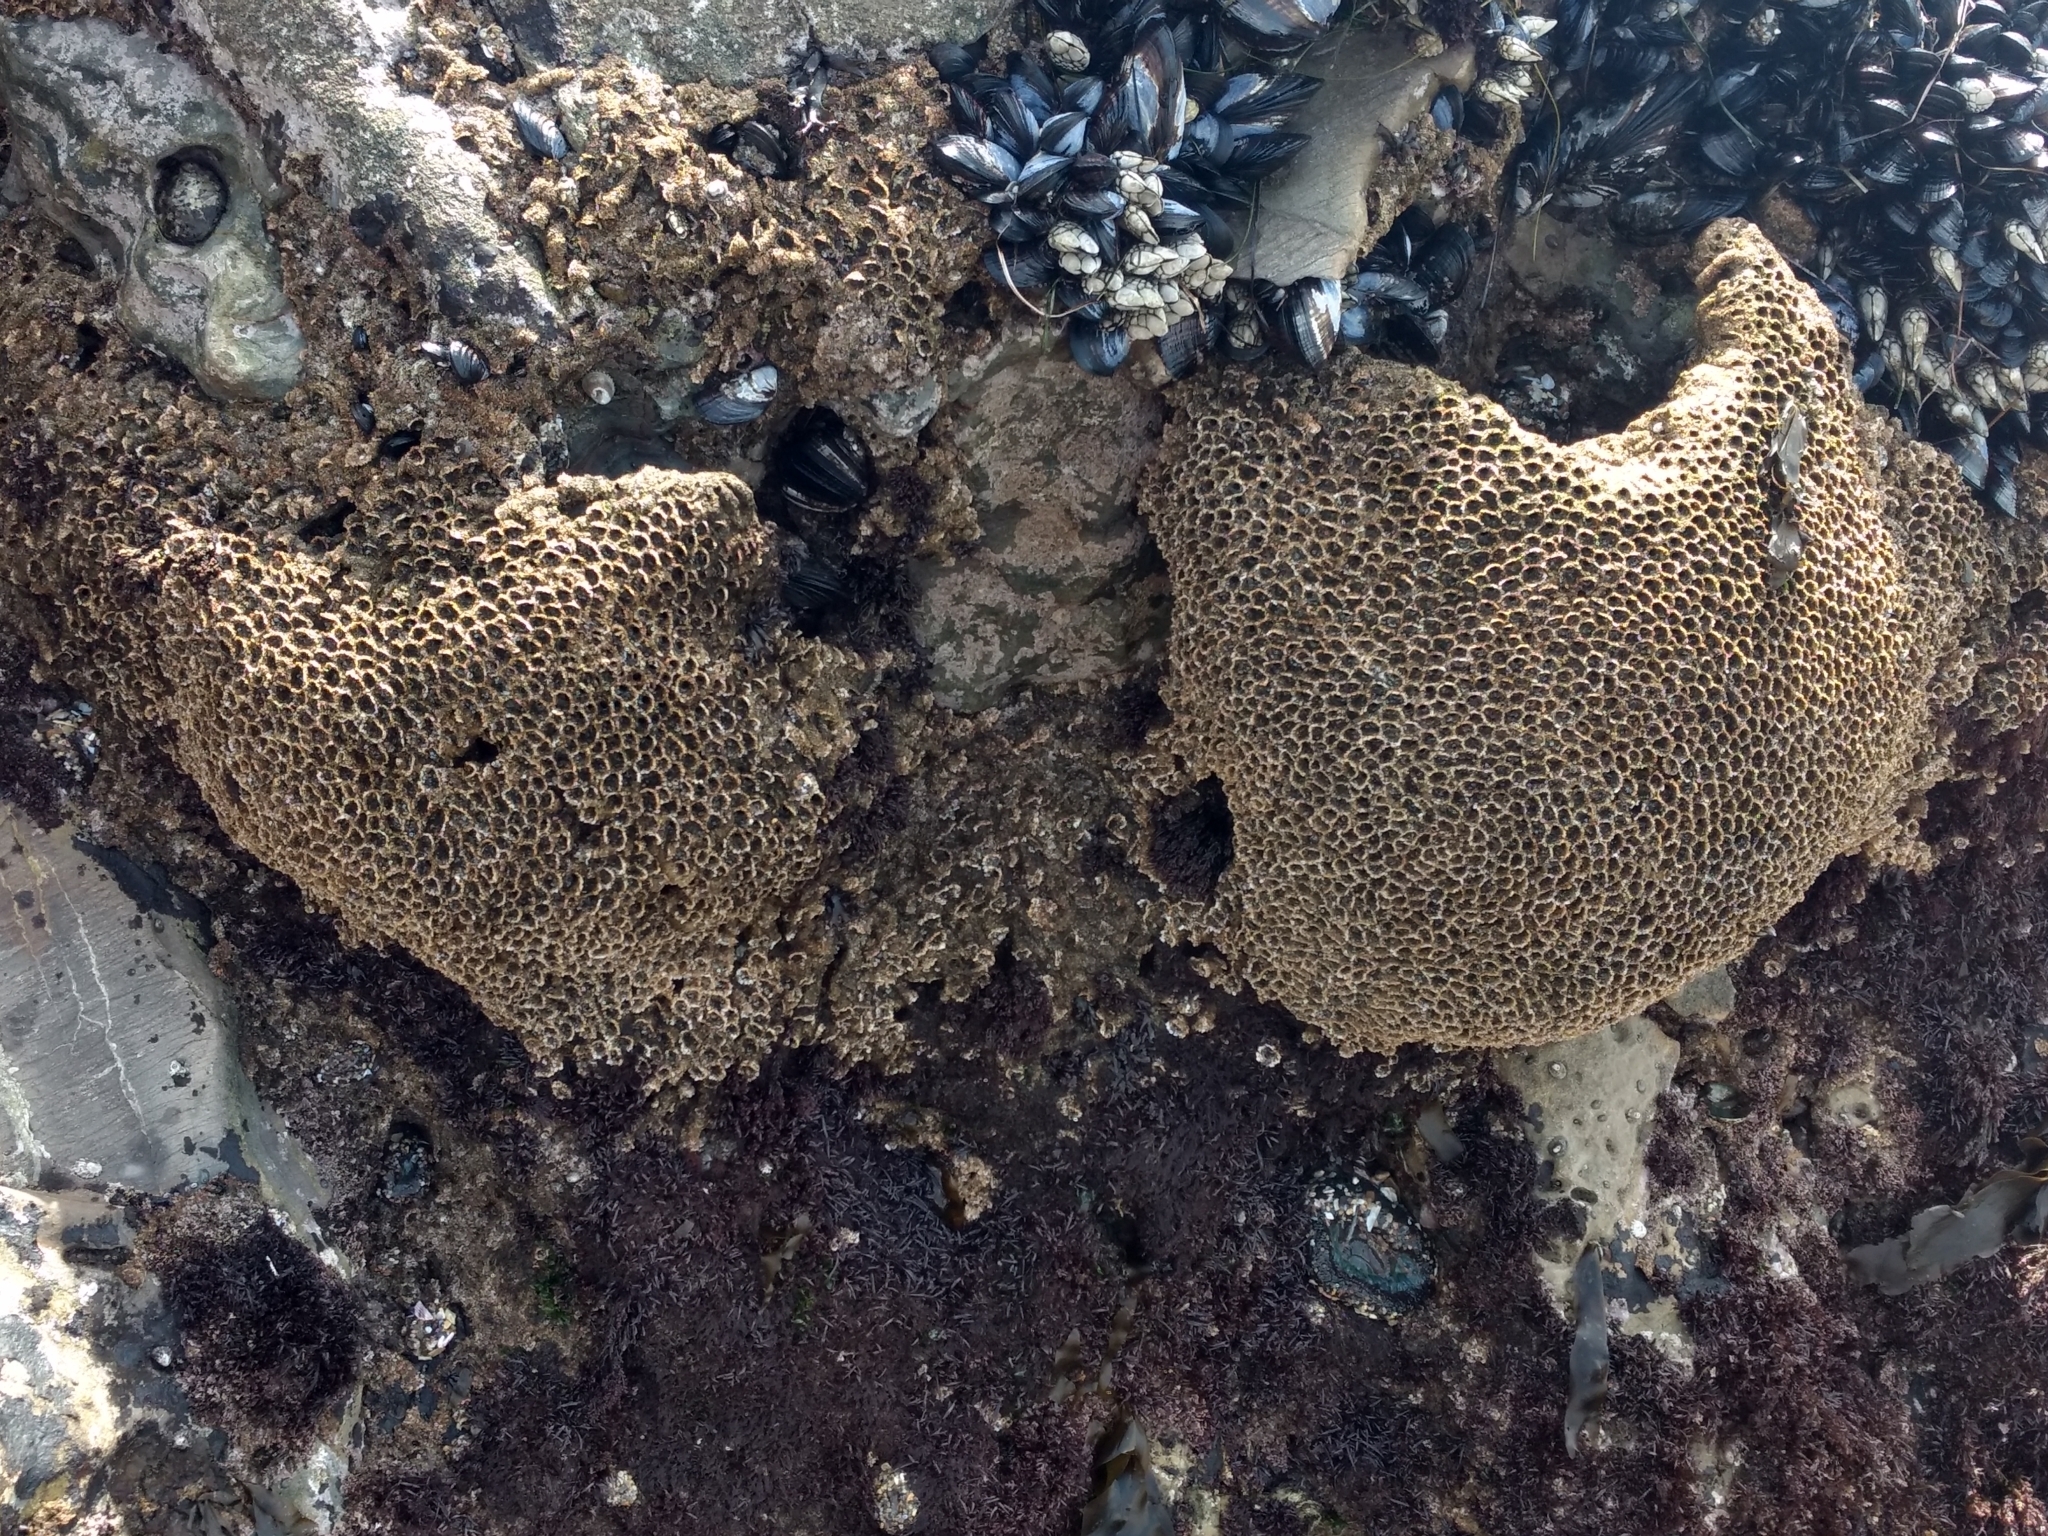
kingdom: Animalia
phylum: Annelida
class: Polychaeta
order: Sabellida
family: Sabellariidae
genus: Phragmatopoma
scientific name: Phragmatopoma californica
